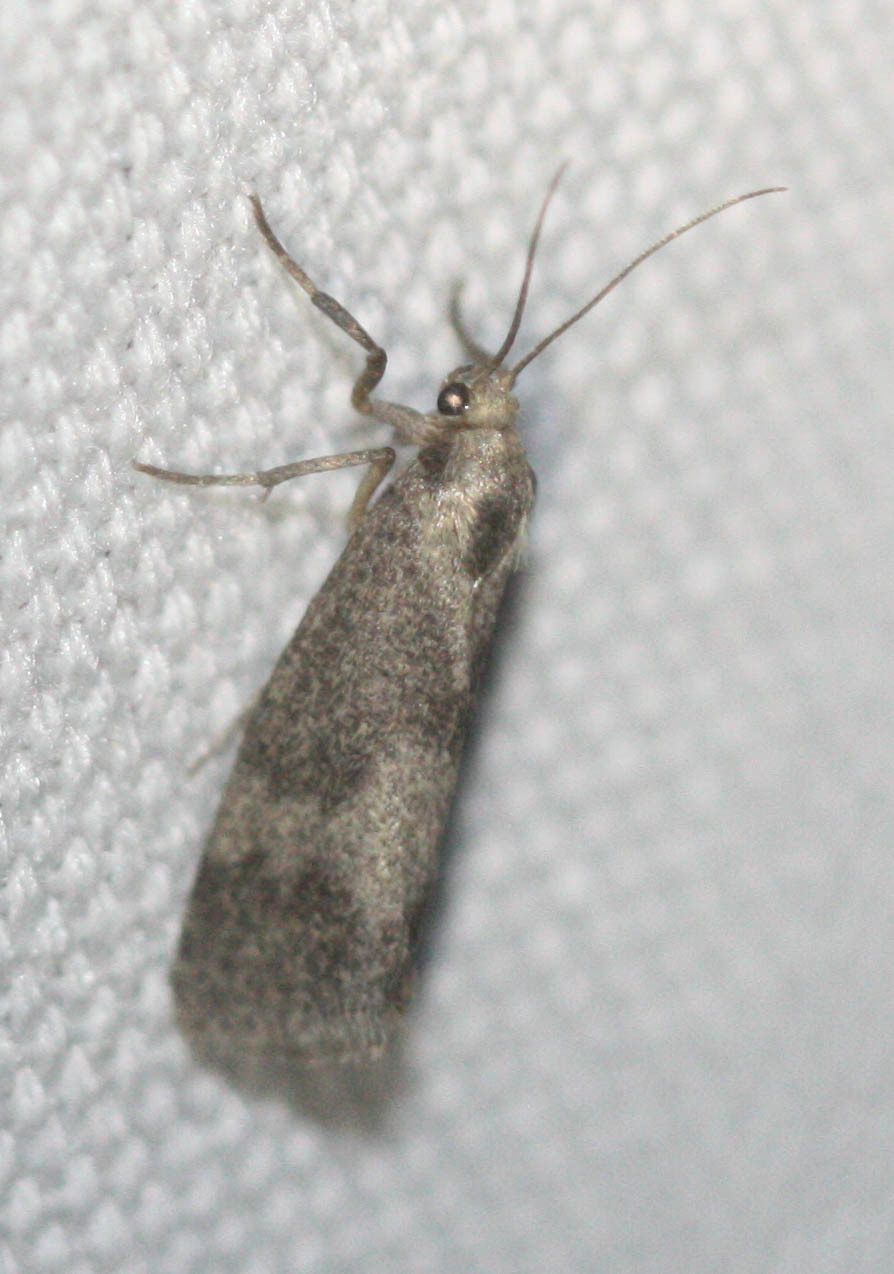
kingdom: Animalia
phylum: Arthropoda
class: Insecta
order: Lepidoptera
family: Erebidae
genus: Cisthene
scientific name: Cisthene faustinula
